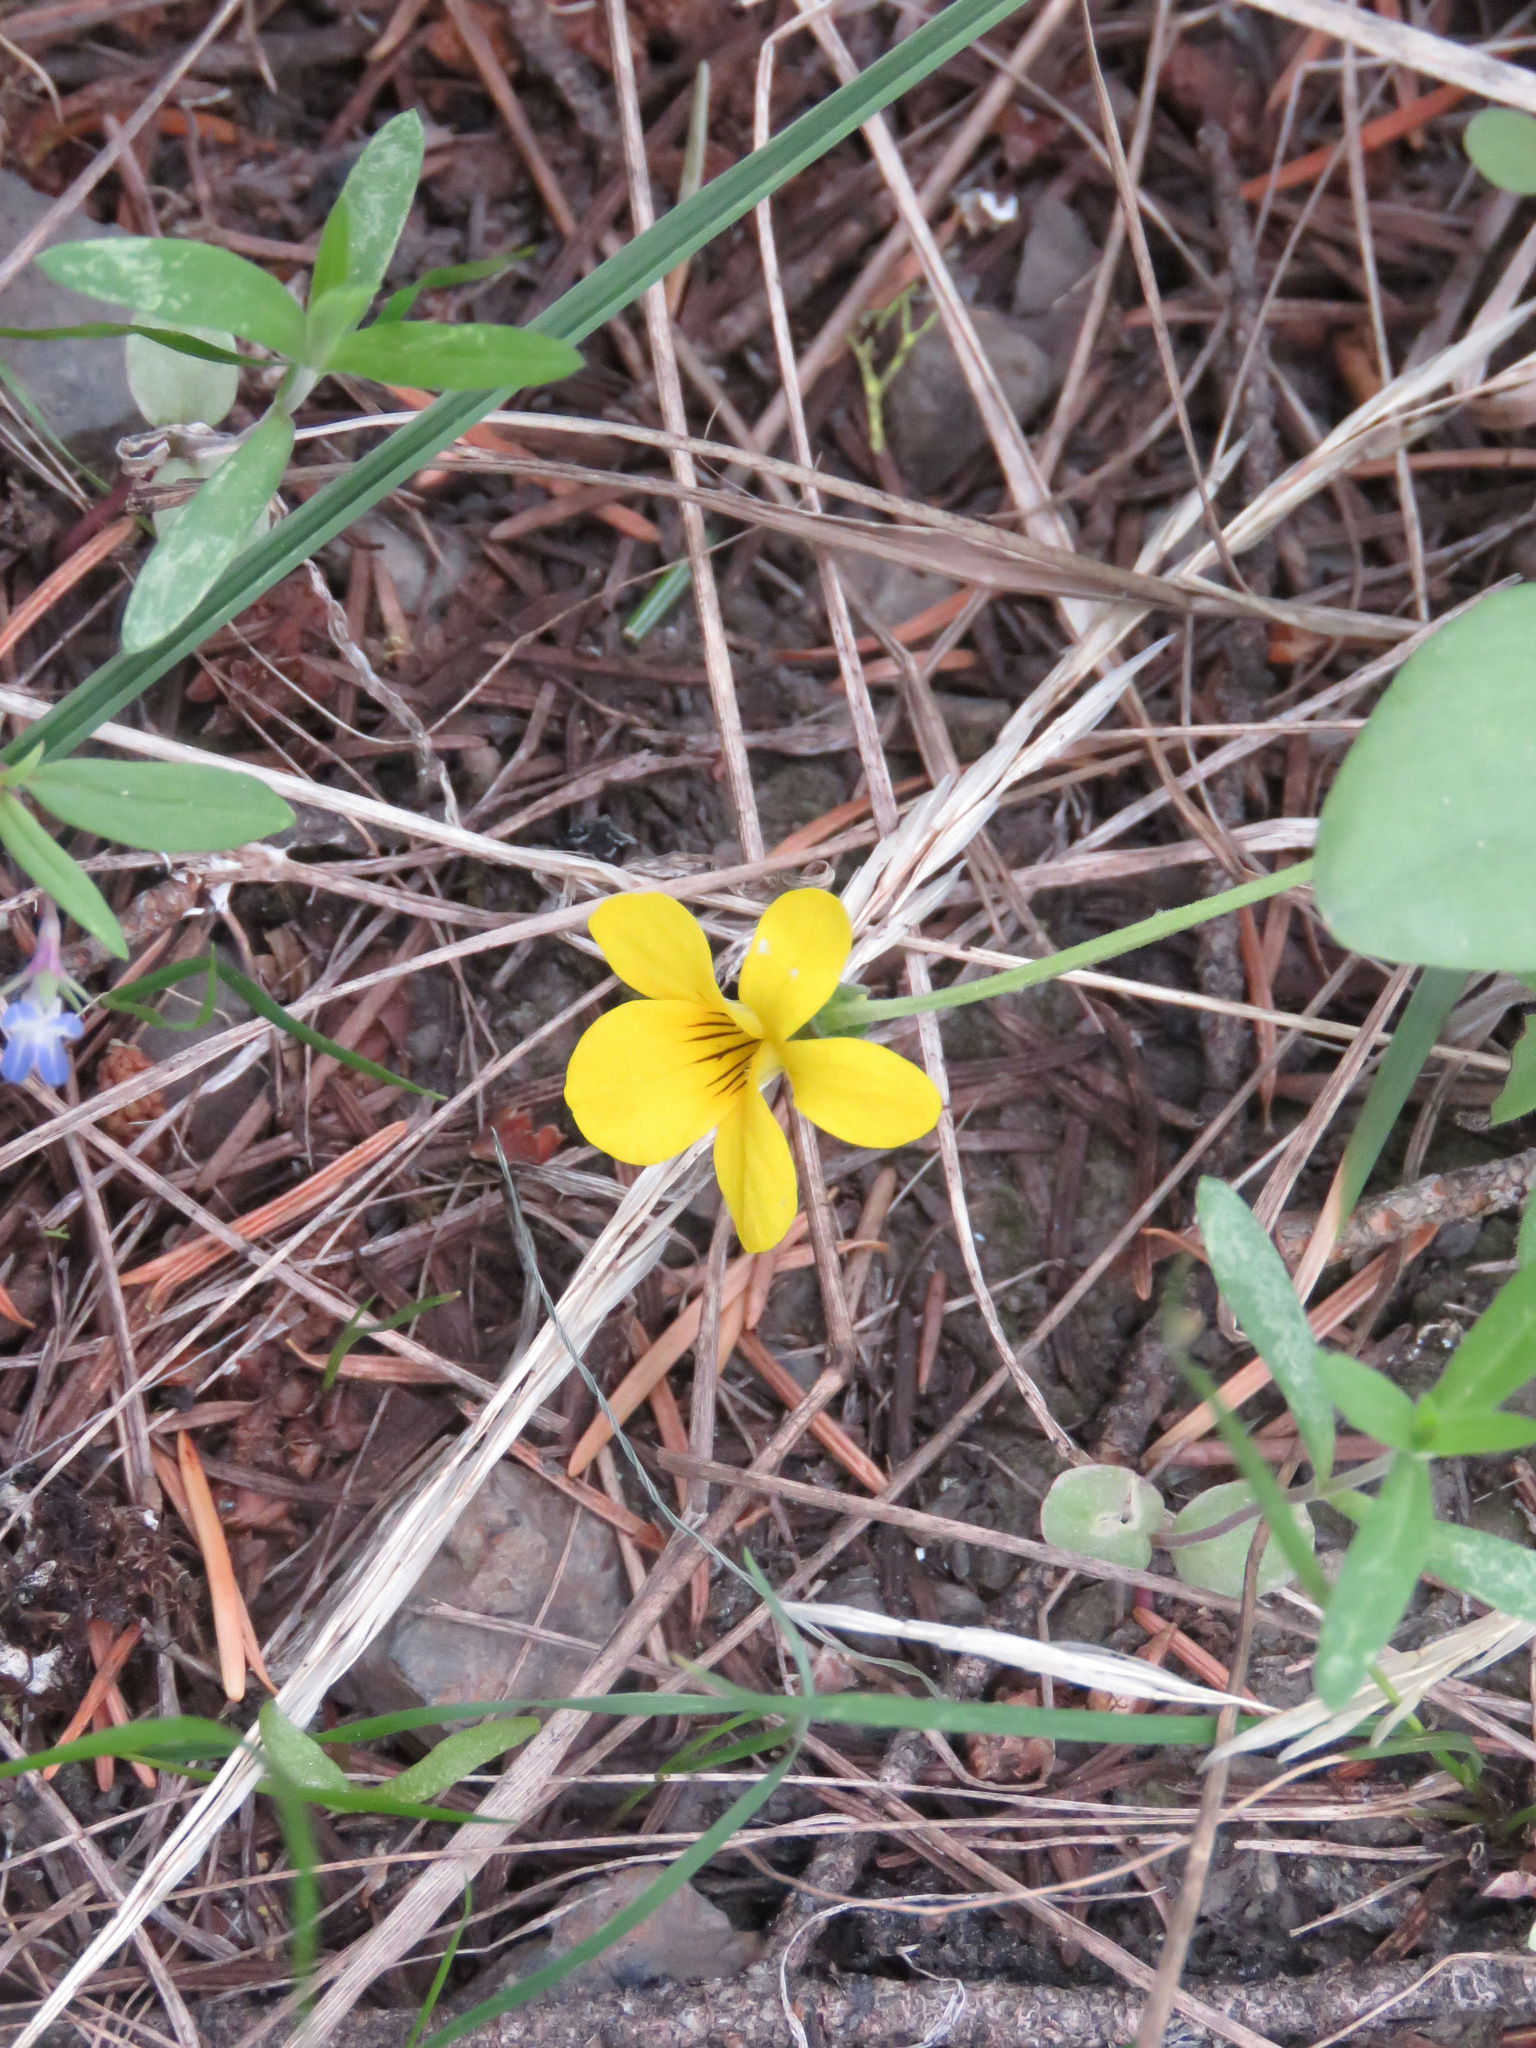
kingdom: Plantae
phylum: Tracheophyta
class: Magnoliopsida
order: Malpighiales
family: Violaceae
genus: Viola
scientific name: Viola vallicola
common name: Valley violet
